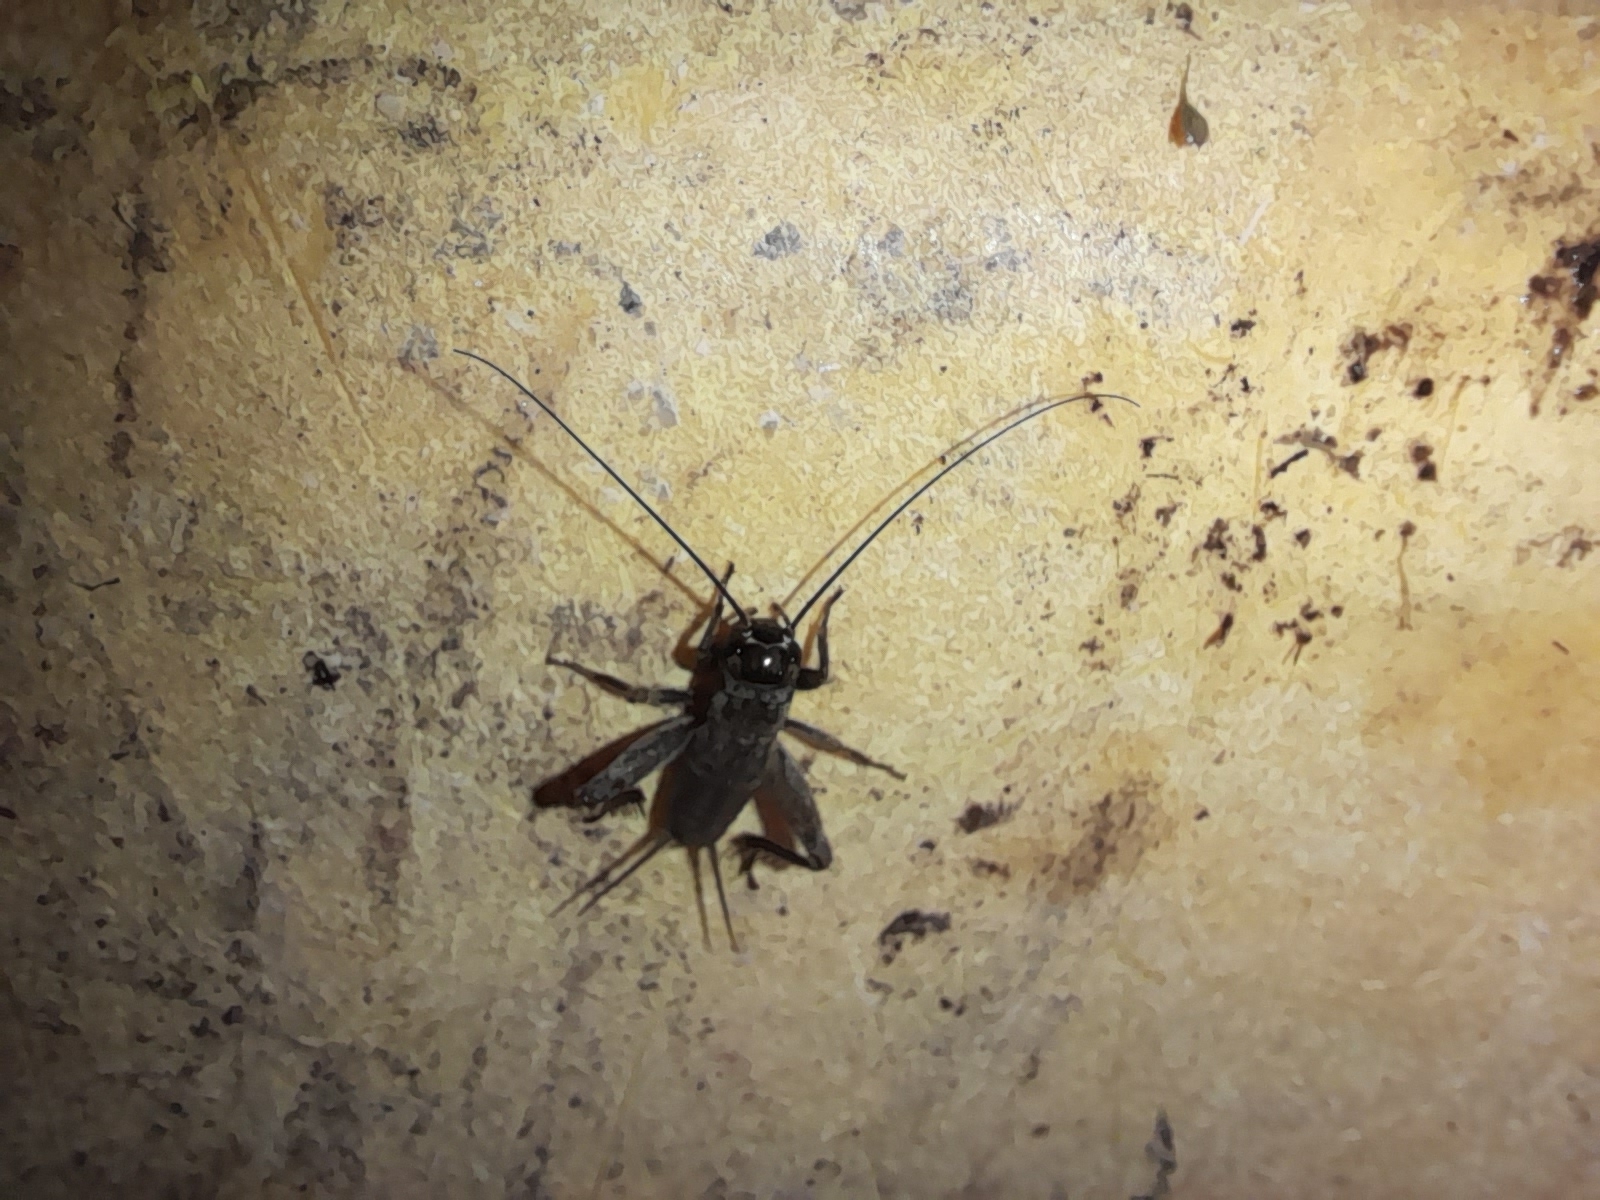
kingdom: Animalia
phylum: Arthropoda
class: Insecta
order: Orthoptera
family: Gryllidae
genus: Eumodicogryllus
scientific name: Eumodicogryllus bordigalensis
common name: Bordeaux cricket
